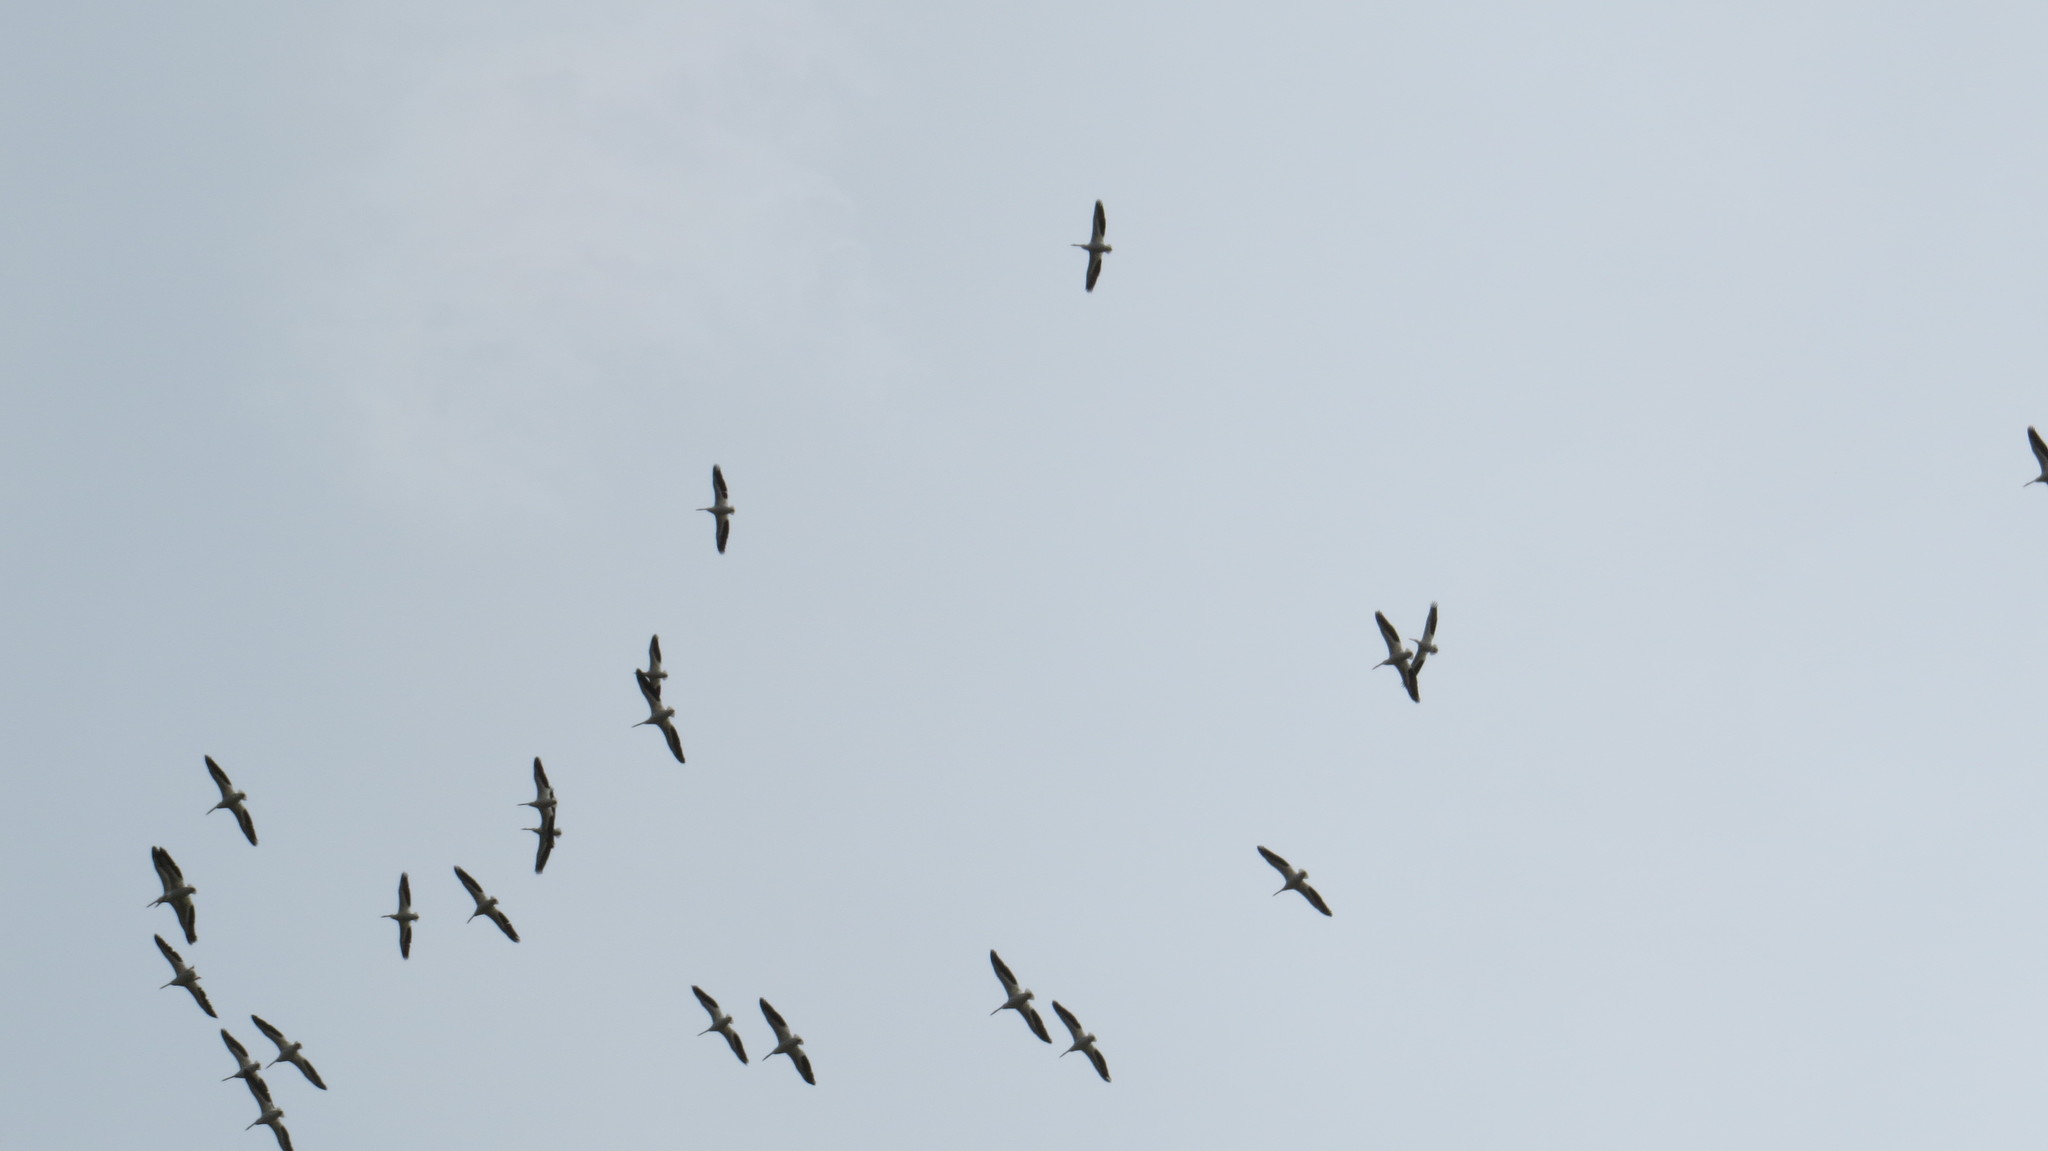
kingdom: Animalia
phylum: Chordata
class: Aves
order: Pelecaniformes
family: Pelecanidae
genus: Pelecanus
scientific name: Pelecanus erythrorhynchos
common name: American white pelican
